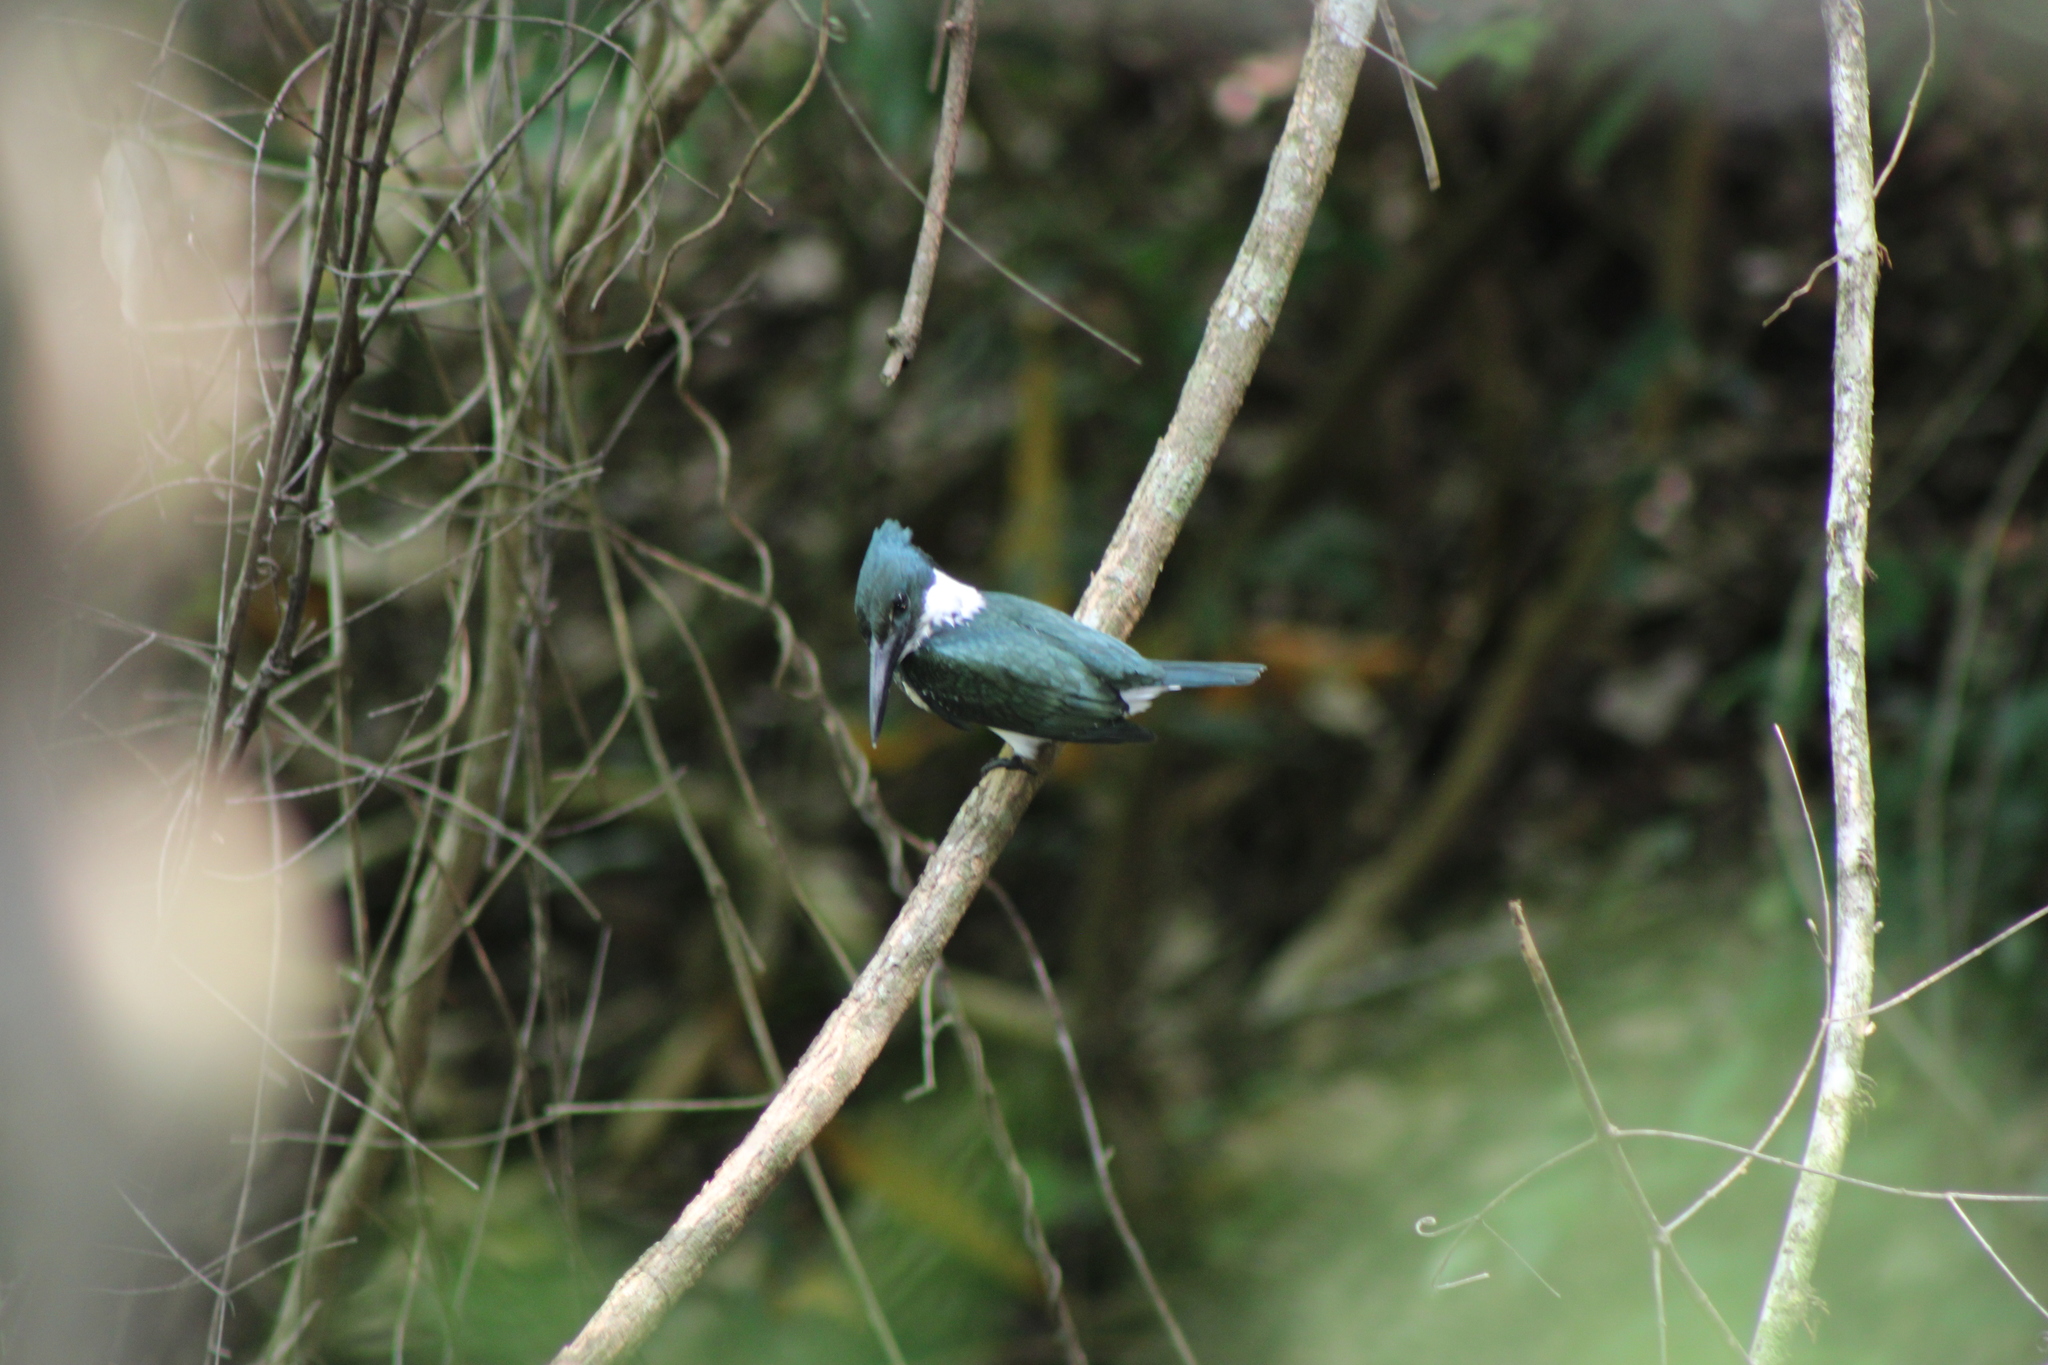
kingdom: Animalia
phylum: Chordata
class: Aves
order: Coraciiformes
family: Alcedinidae
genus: Chloroceryle
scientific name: Chloroceryle amazona
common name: Amazon kingfisher
